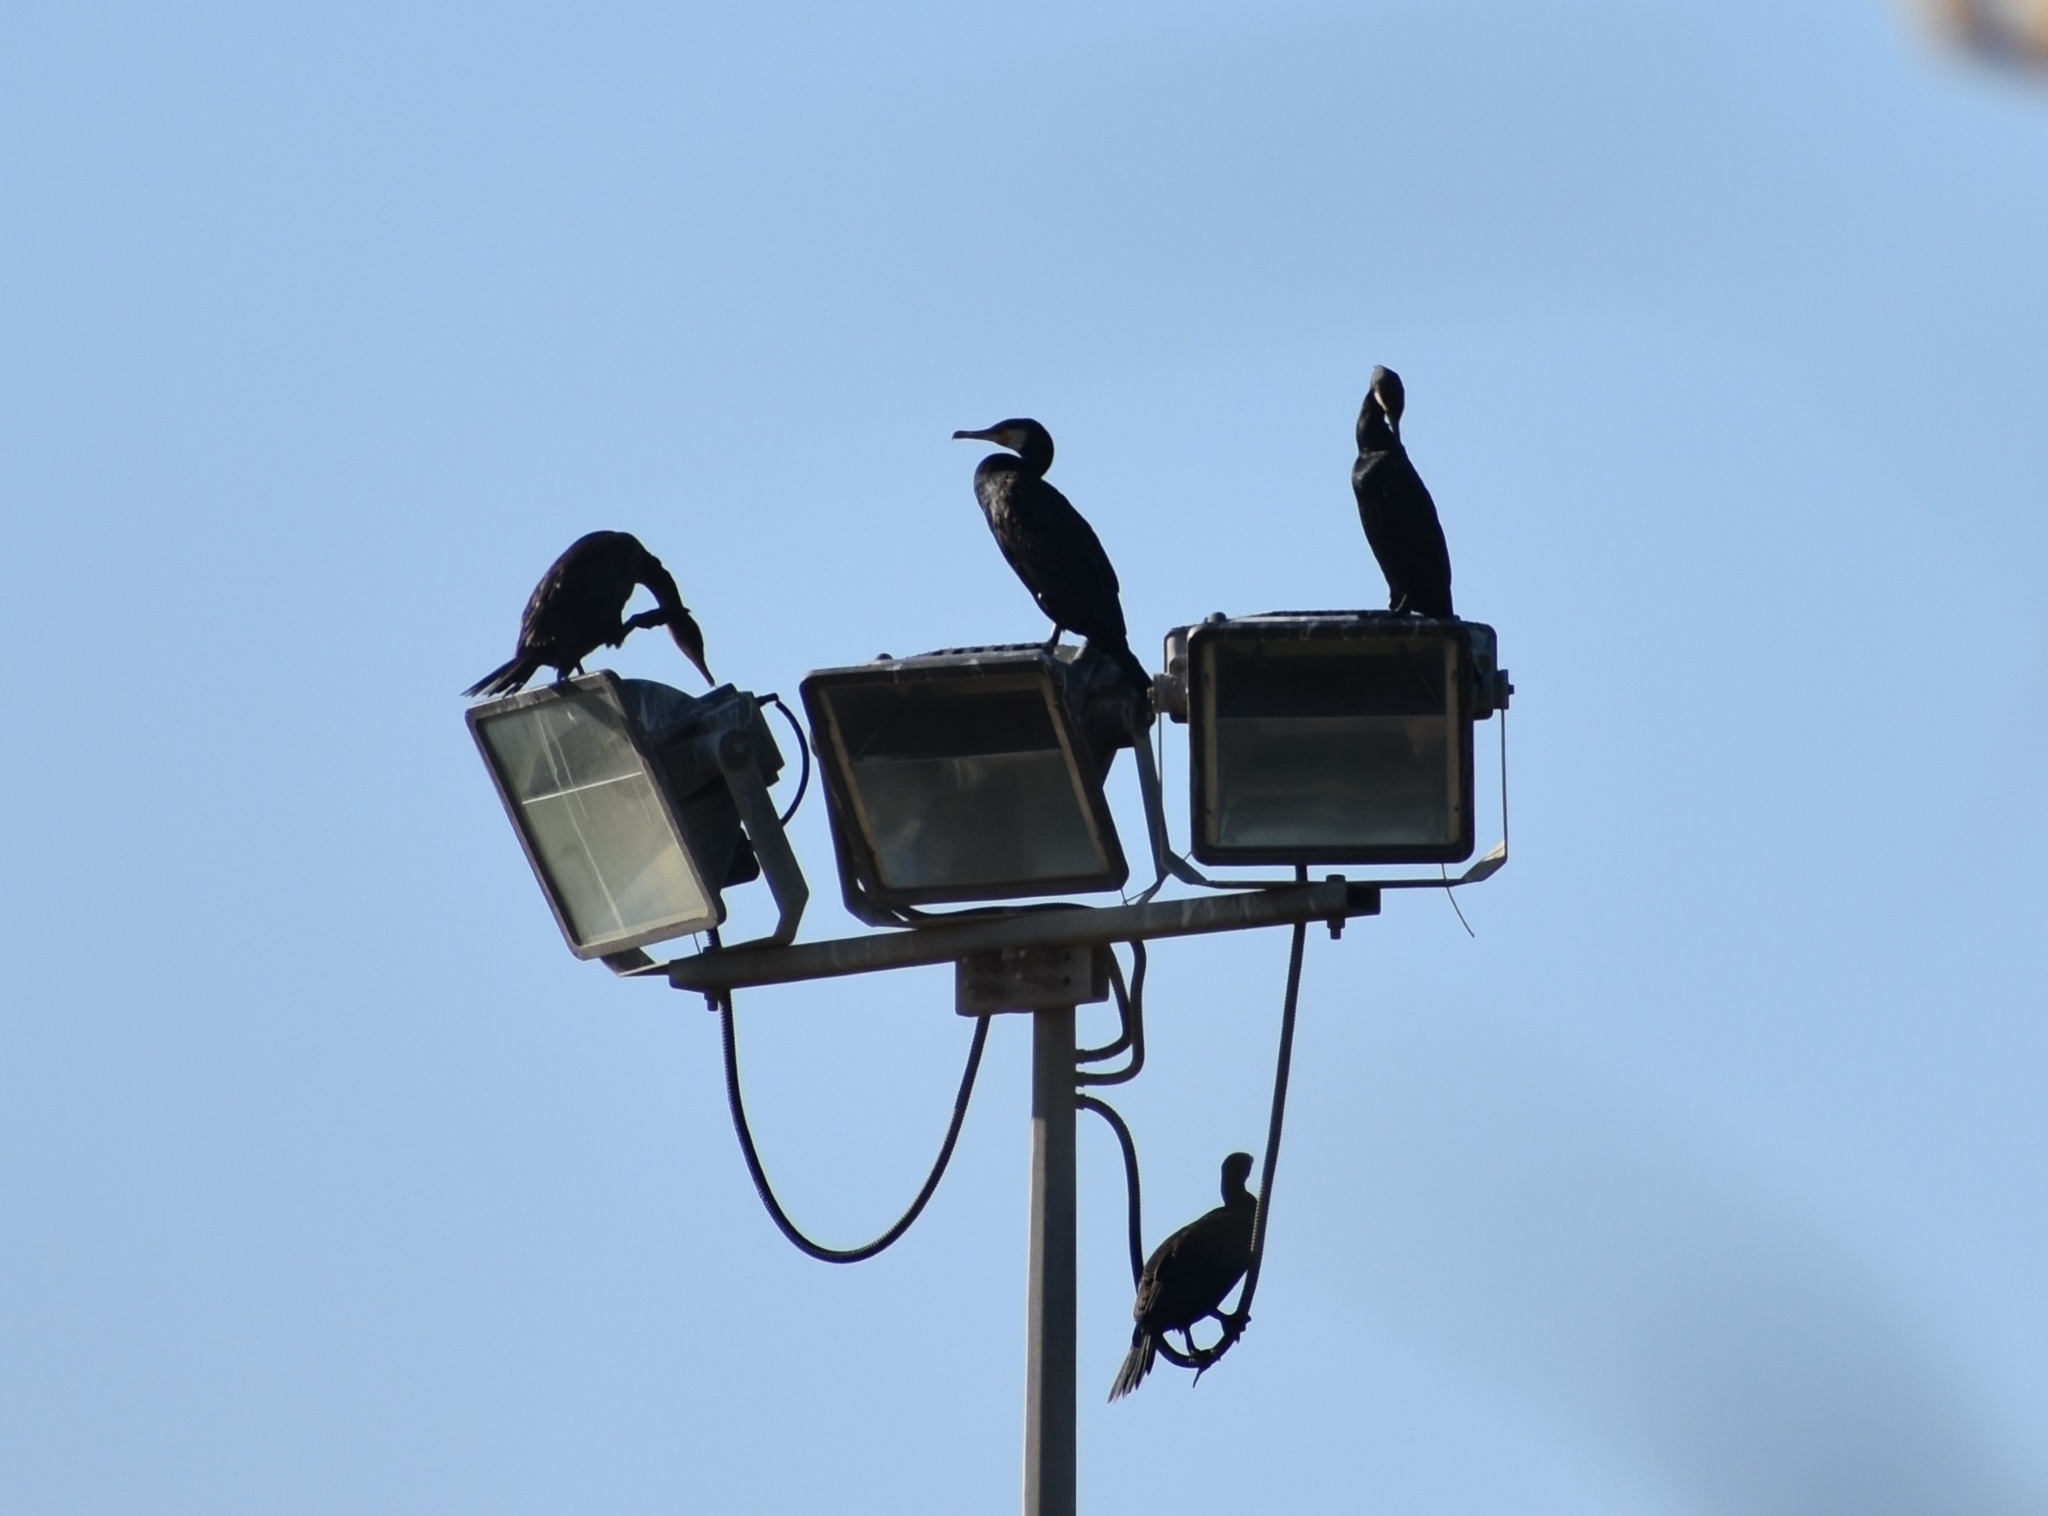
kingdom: Animalia
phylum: Chordata
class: Aves
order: Suliformes
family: Phalacrocoracidae
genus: Phalacrocorax
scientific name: Phalacrocorax carbo
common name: Great cormorant
